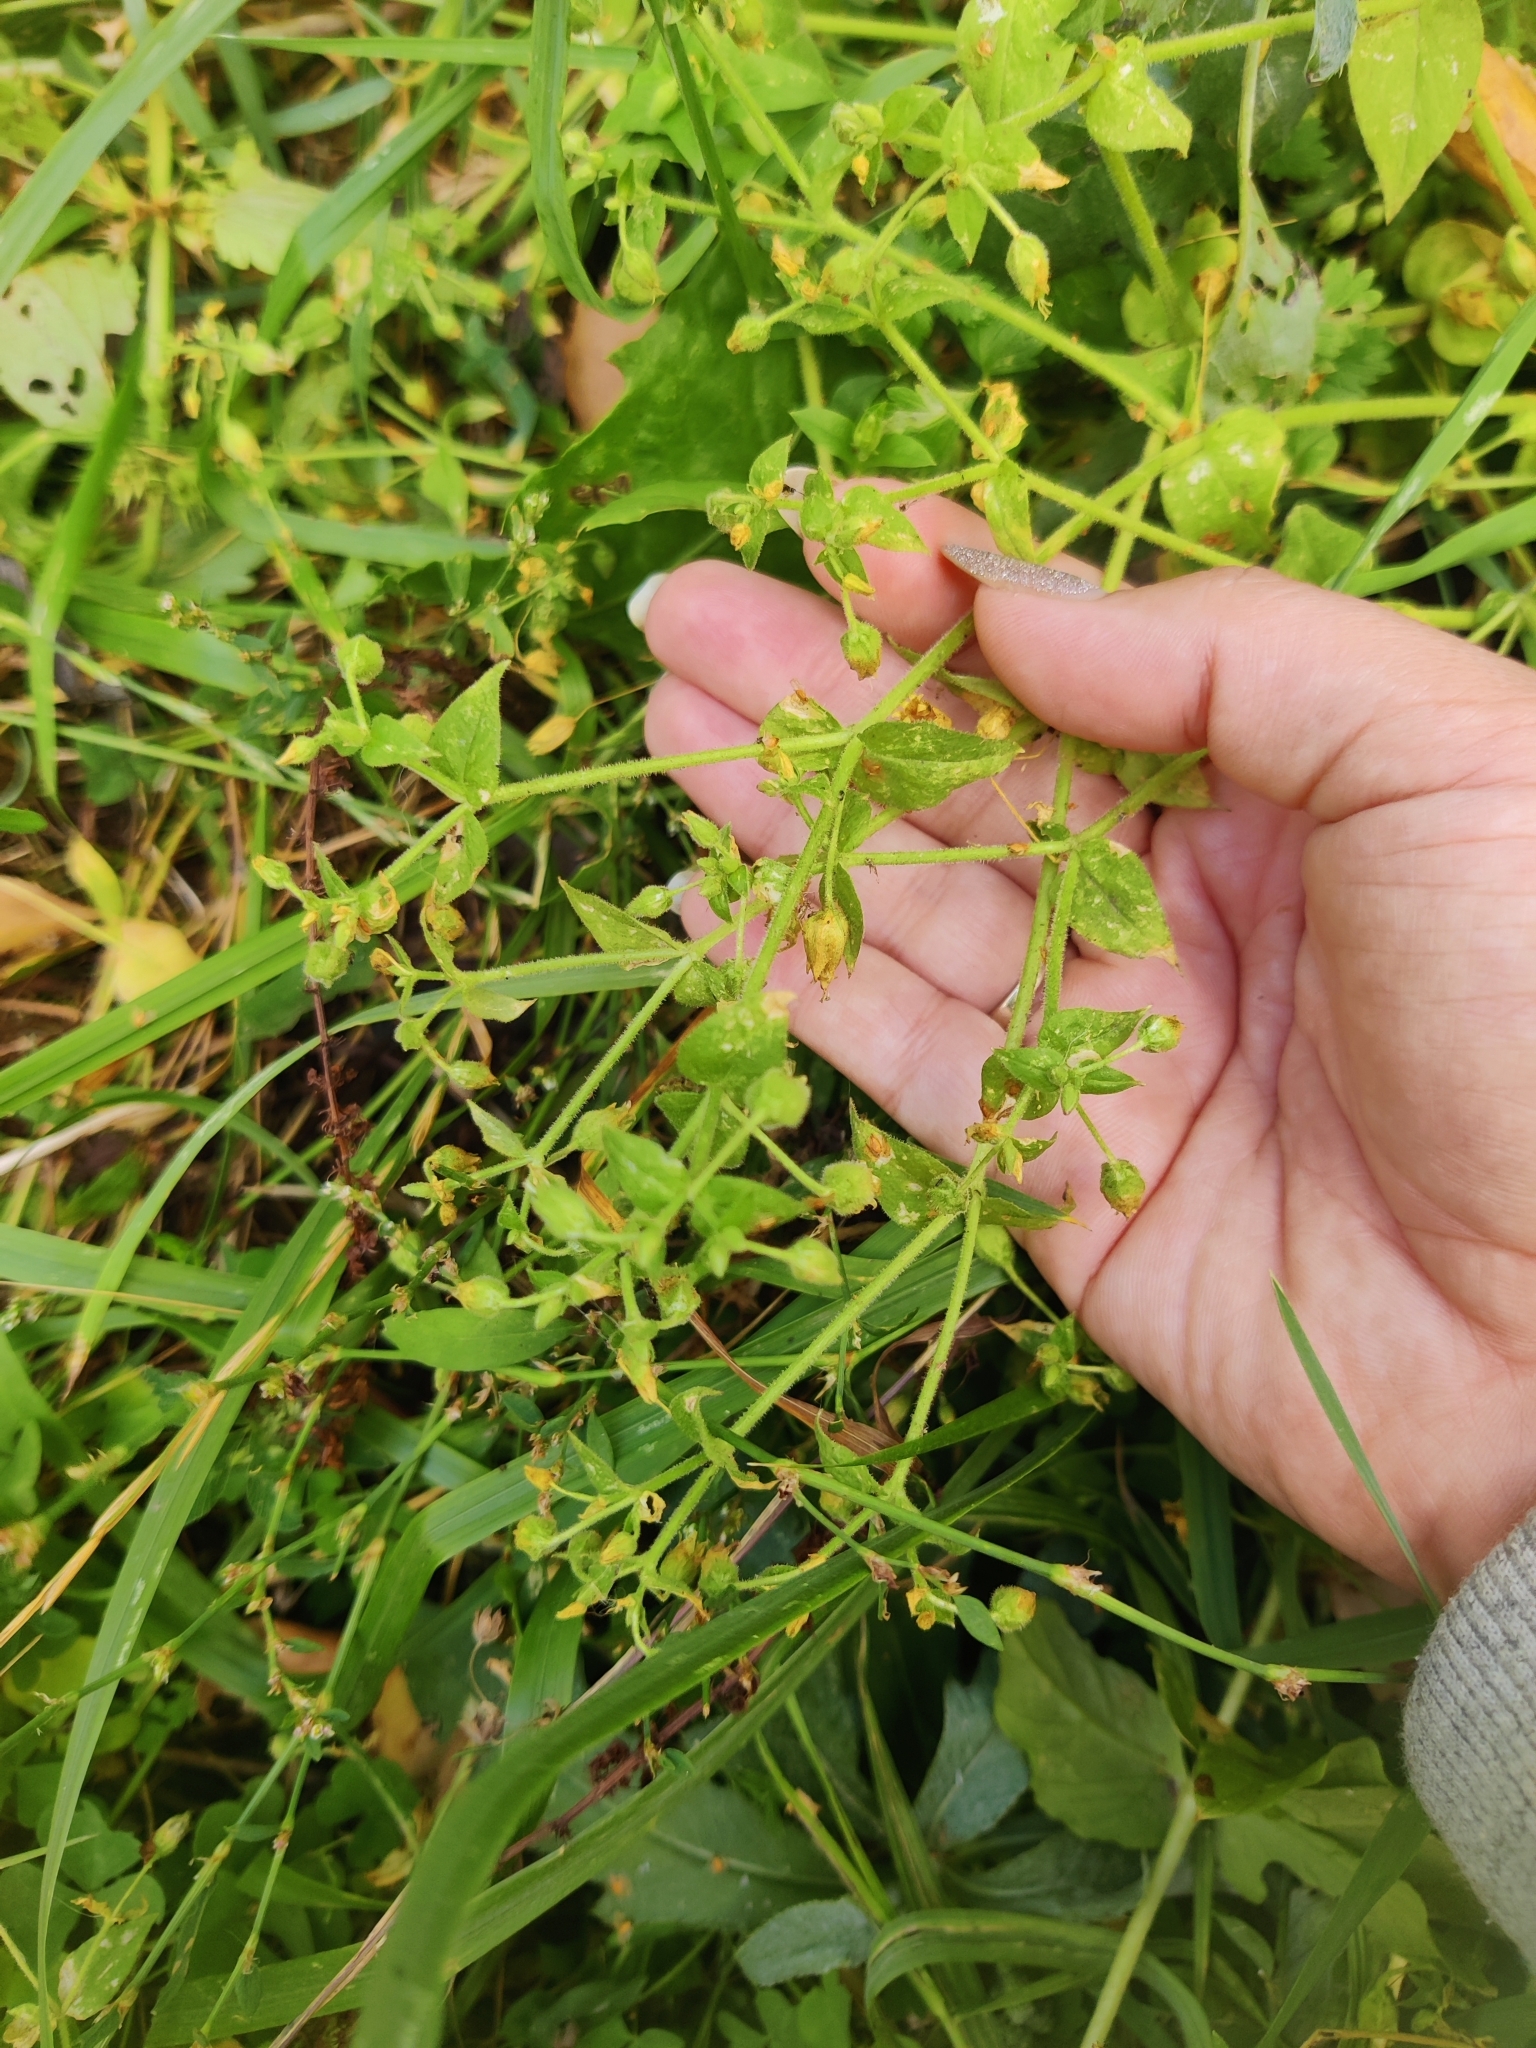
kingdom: Plantae
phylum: Tracheophyta
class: Magnoliopsida
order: Caryophyllales
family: Caryophyllaceae
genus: Stellaria
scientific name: Stellaria aquatica
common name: Water chickweed
